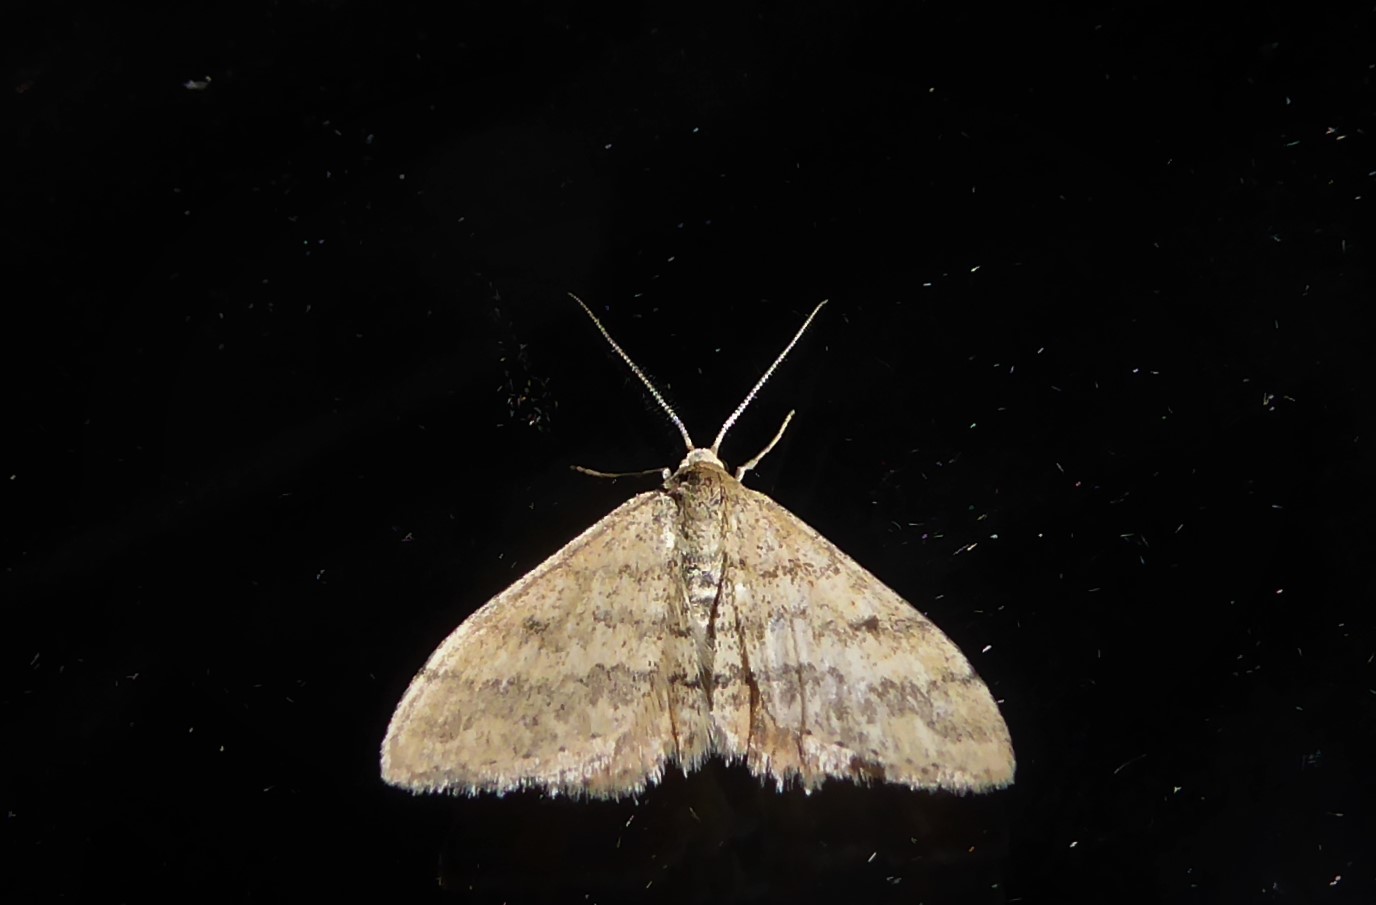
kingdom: Animalia
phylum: Arthropoda
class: Insecta
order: Lepidoptera
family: Geometridae
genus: Scopula
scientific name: Scopula rubraria
